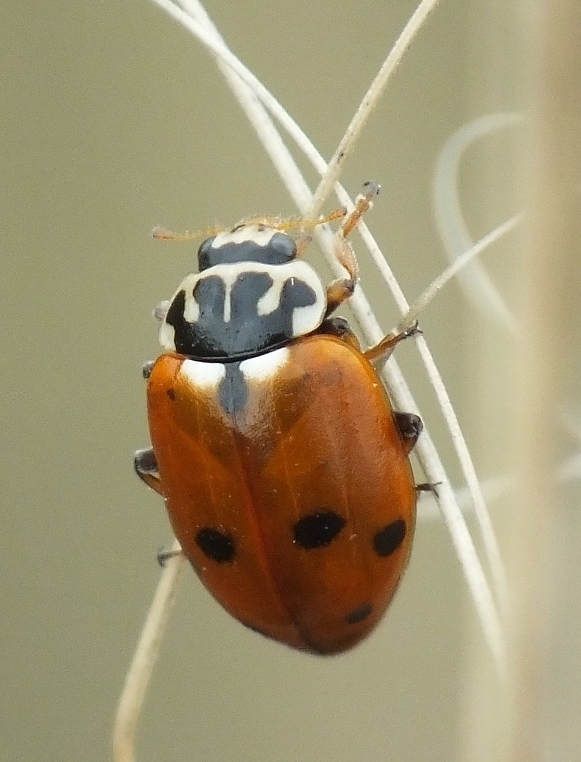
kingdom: Animalia
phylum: Arthropoda
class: Insecta
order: Coleoptera
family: Coccinellidae
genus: Hippodamia
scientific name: Hippodamia variegata
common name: Ladybird beetle
